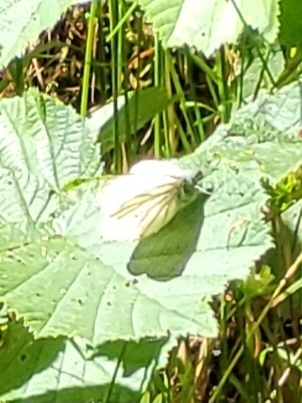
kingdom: Animalia
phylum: Arthropoda
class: Insecta
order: Lepidoptera
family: Pieridae
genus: Pieris
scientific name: Pieris napi
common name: Green-veined white
